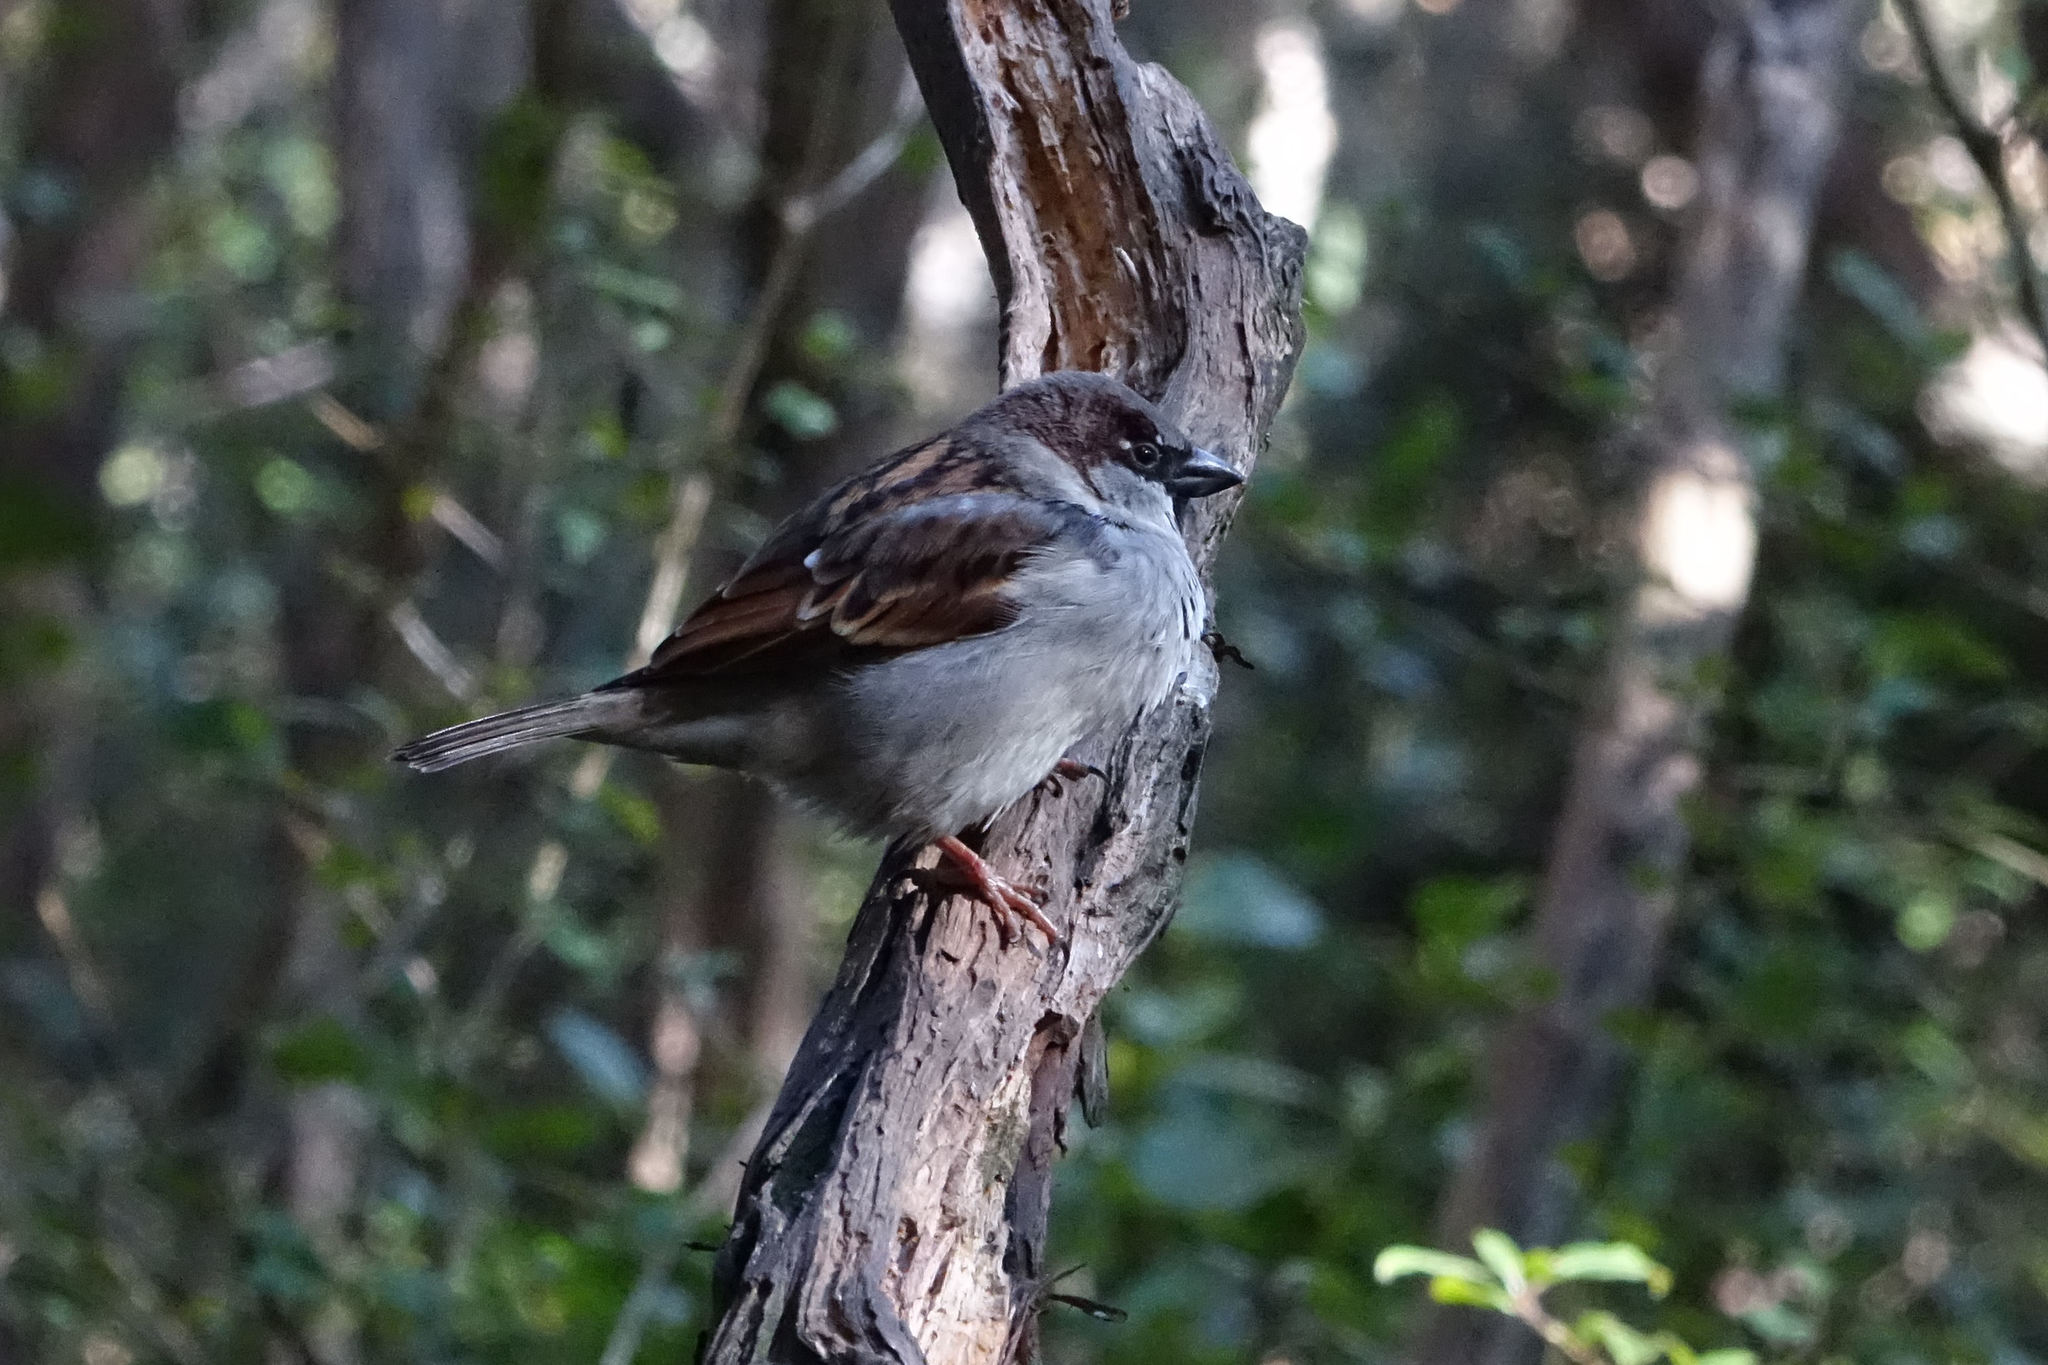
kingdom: Animalia
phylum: Chordata
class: Aves
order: Passeriformes
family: Passeridae
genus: Passer
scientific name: Passer domesticus
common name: House sparrow
